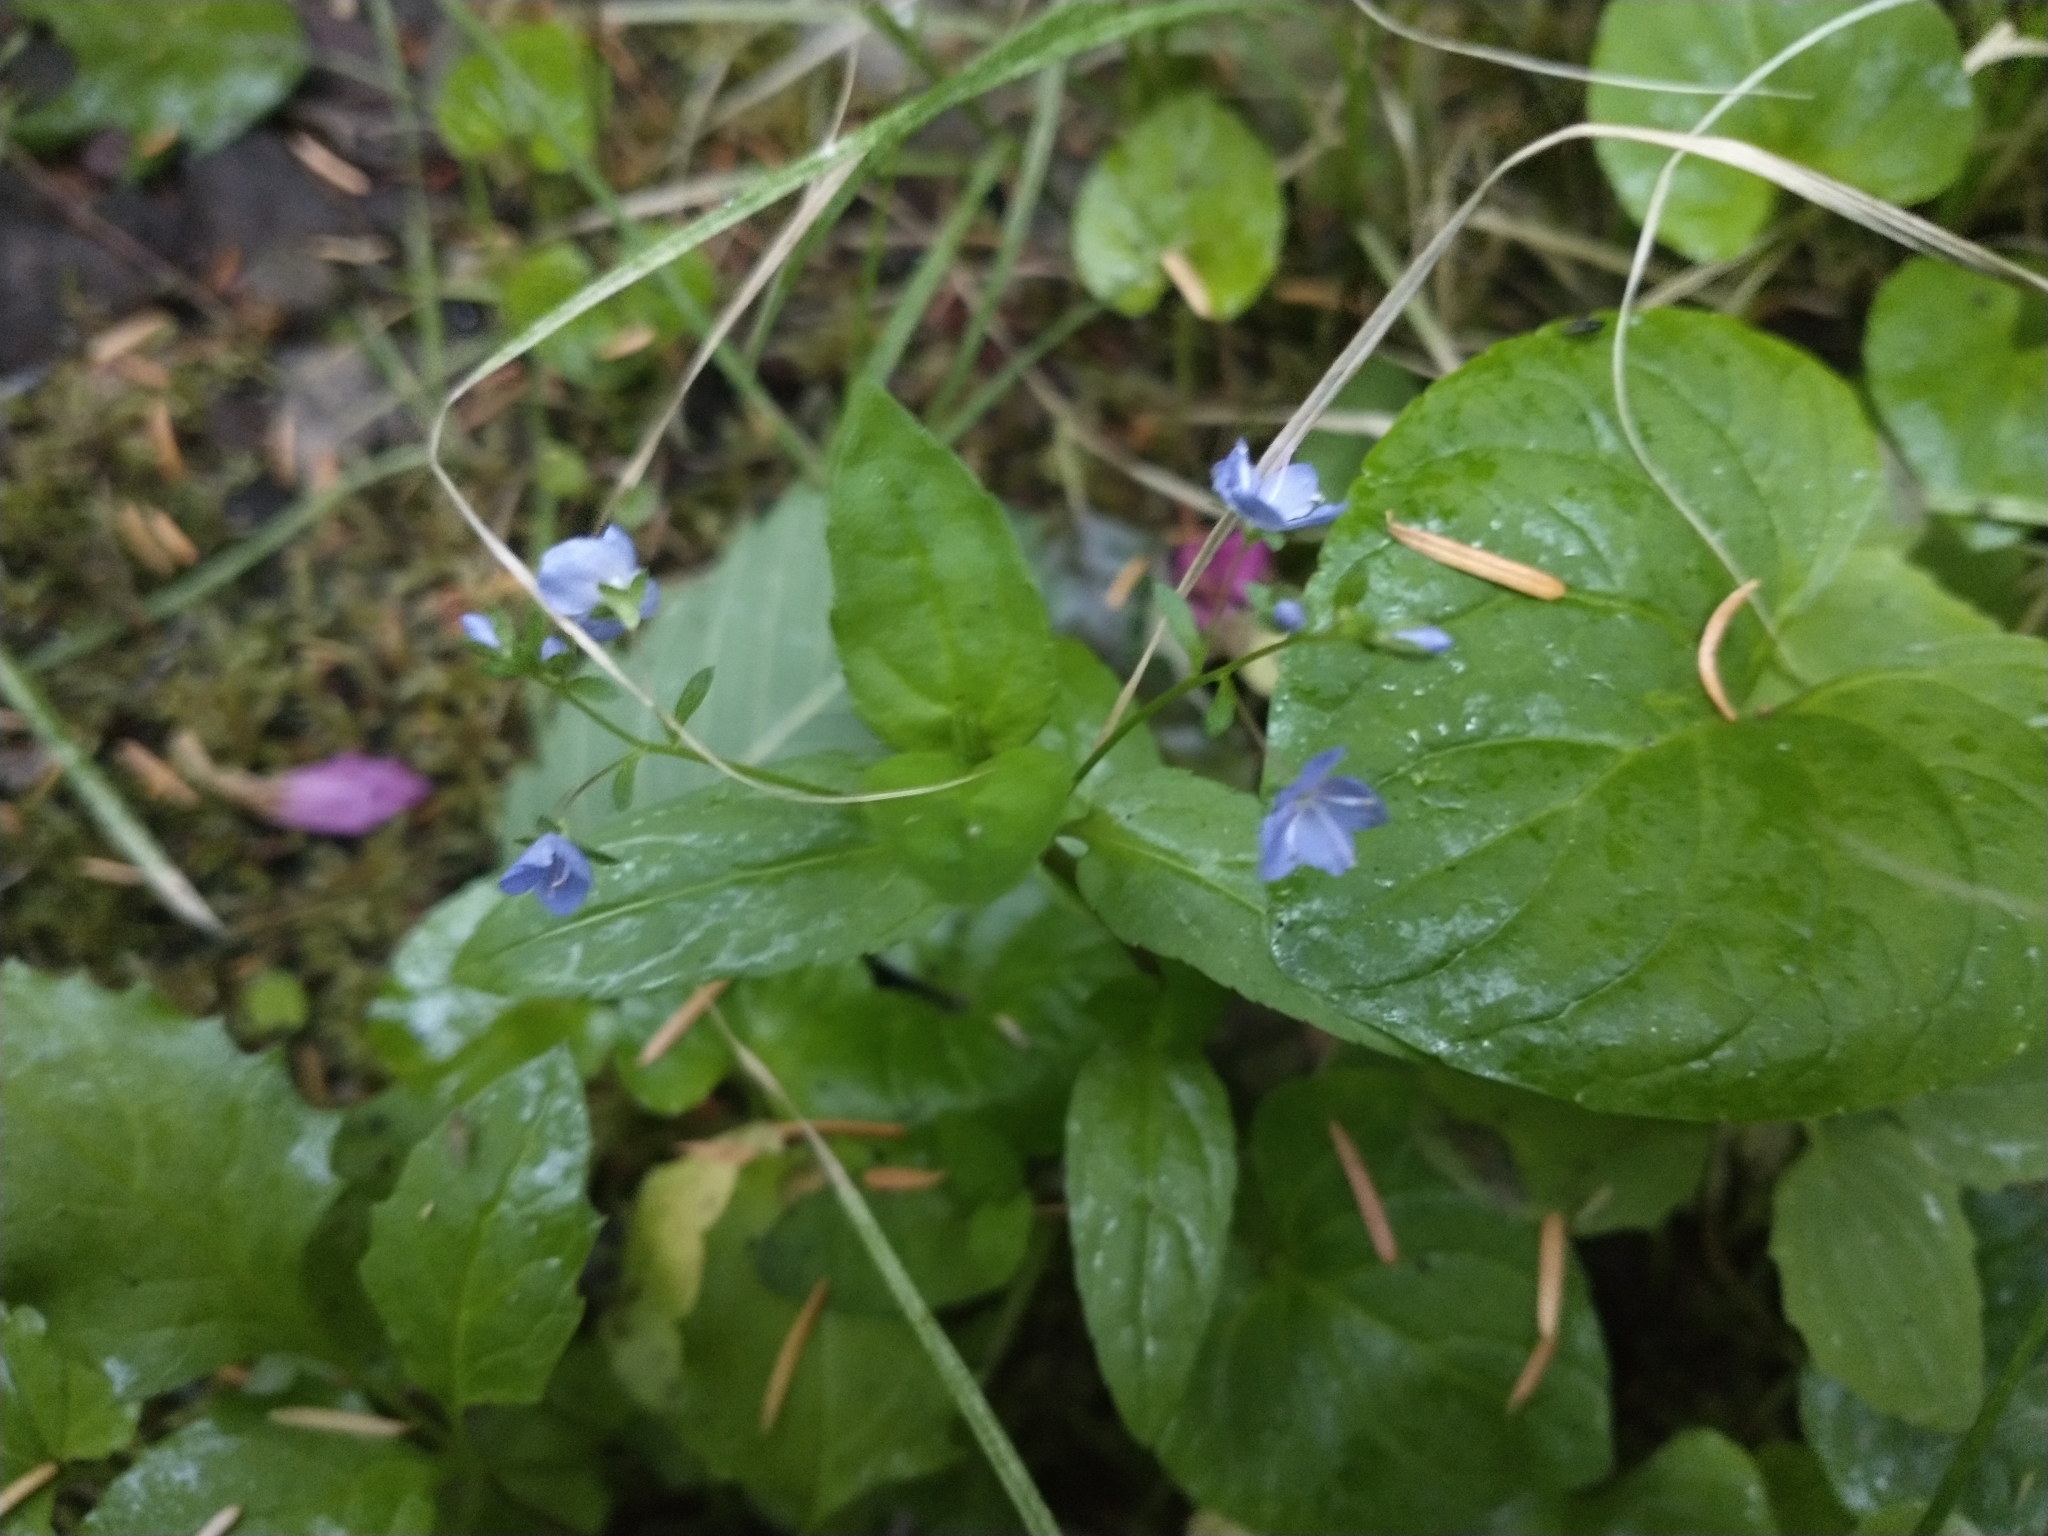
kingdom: Plantae
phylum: Tracheophyta
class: Magnoliopsida
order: Lamiales
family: Plantaginaceae
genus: Veronica
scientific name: Veronica americana
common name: American brooklime
